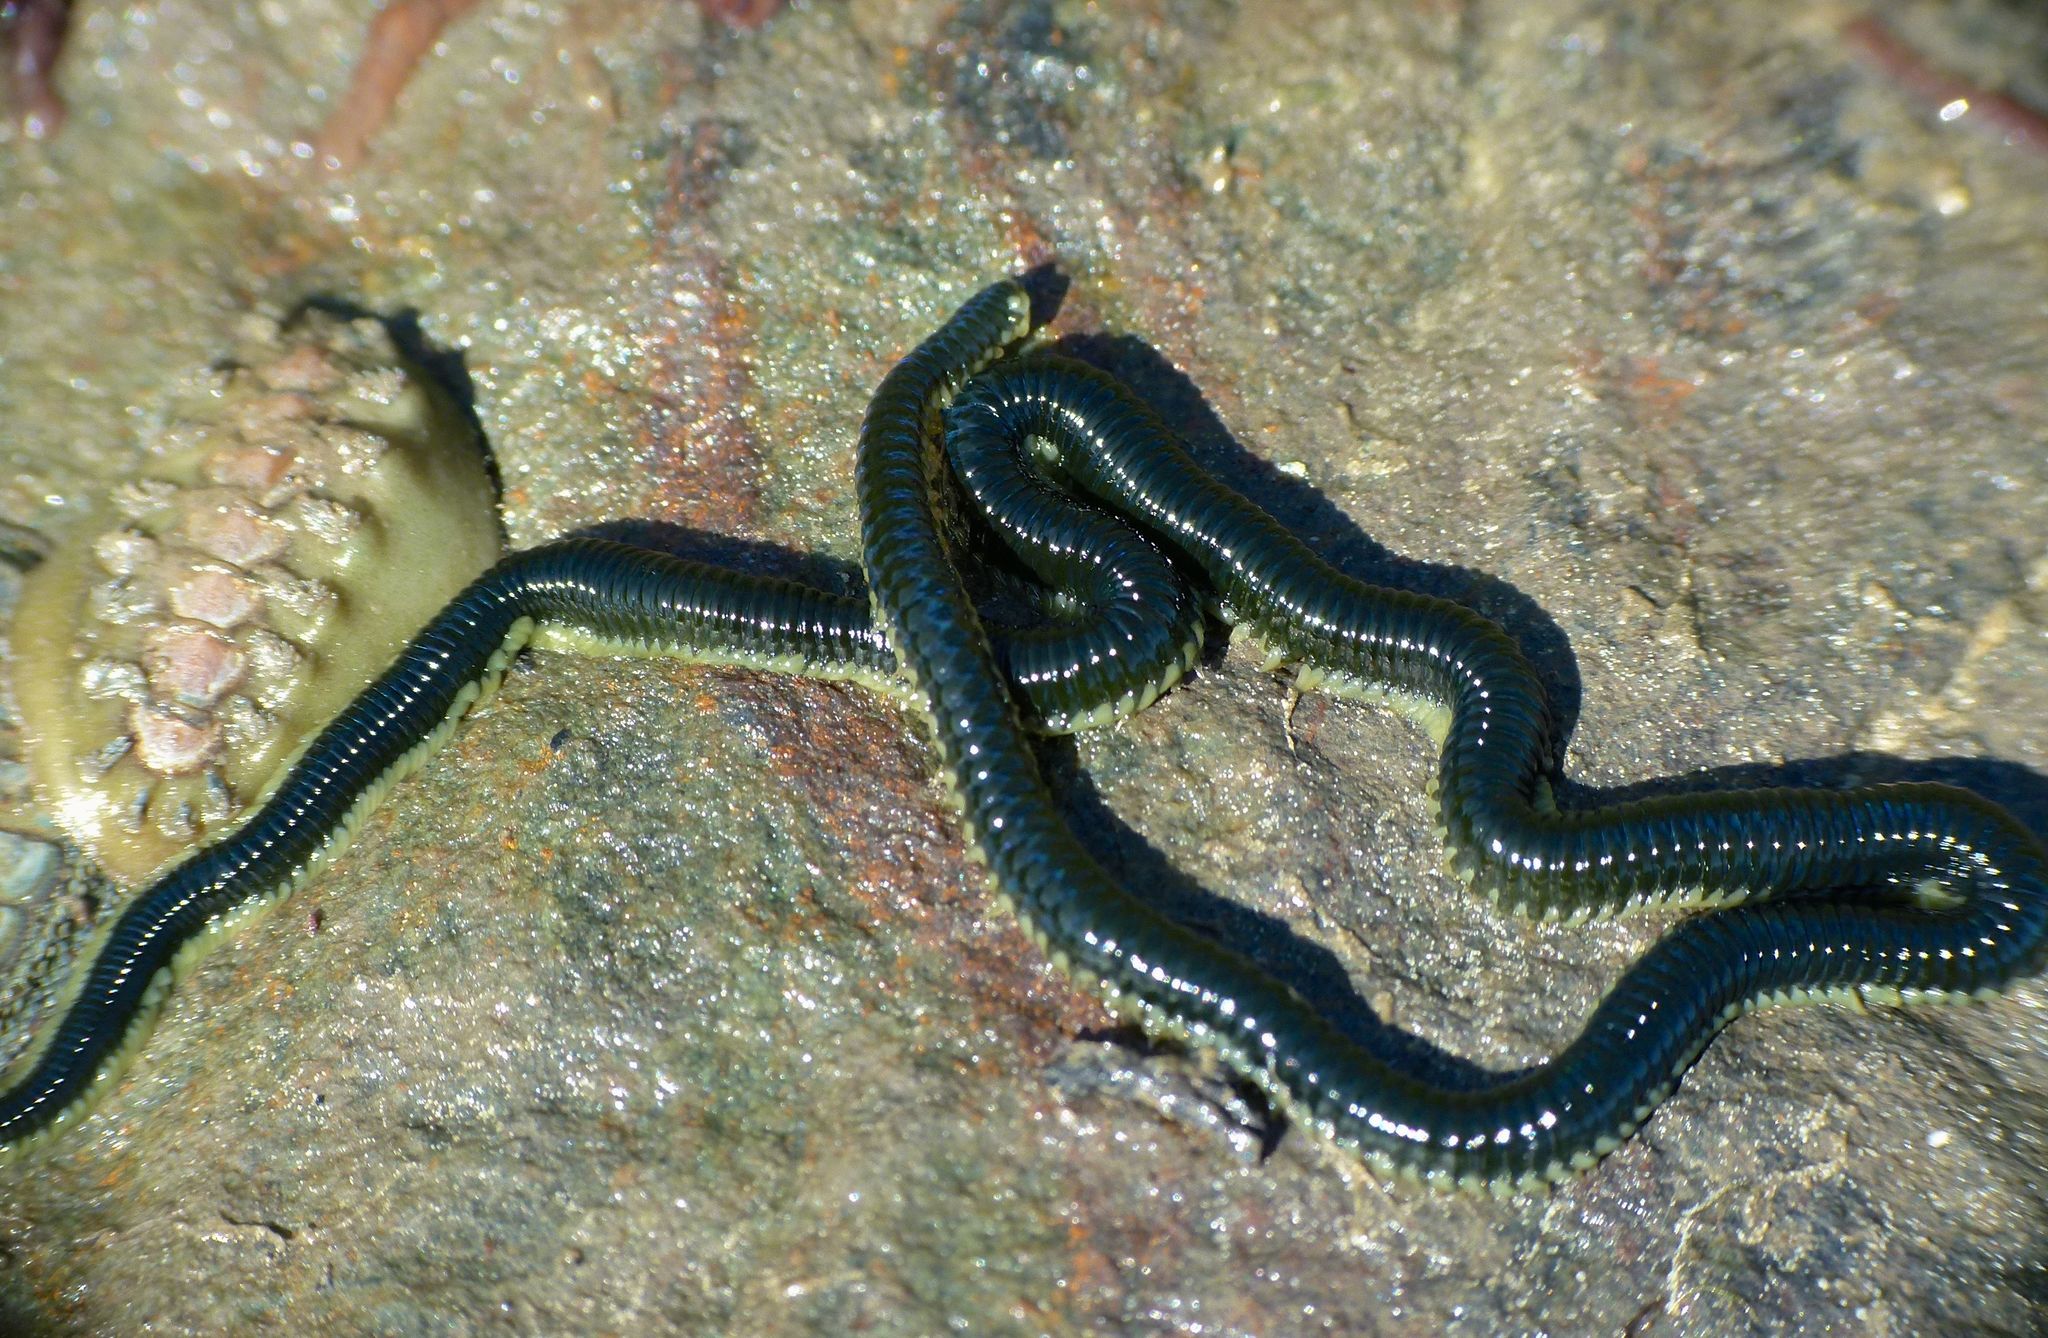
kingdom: Animalia
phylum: Annelida
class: Polychaeta
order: Phyllodocida
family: Phyllodocidae
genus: Eulalia
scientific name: Eulalia microphylla
